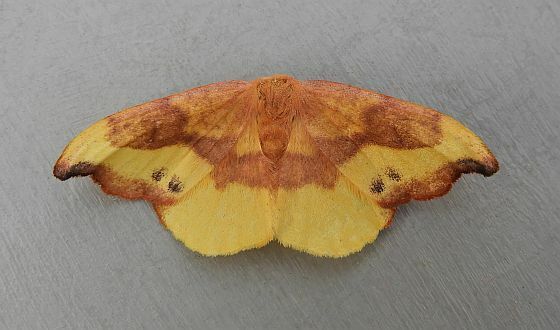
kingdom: Animalia
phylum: Arthropoda
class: Insecta
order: Lepidoptera
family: Drepanidae
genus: Oreta
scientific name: Oreta rosea
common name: Rose hooktip
